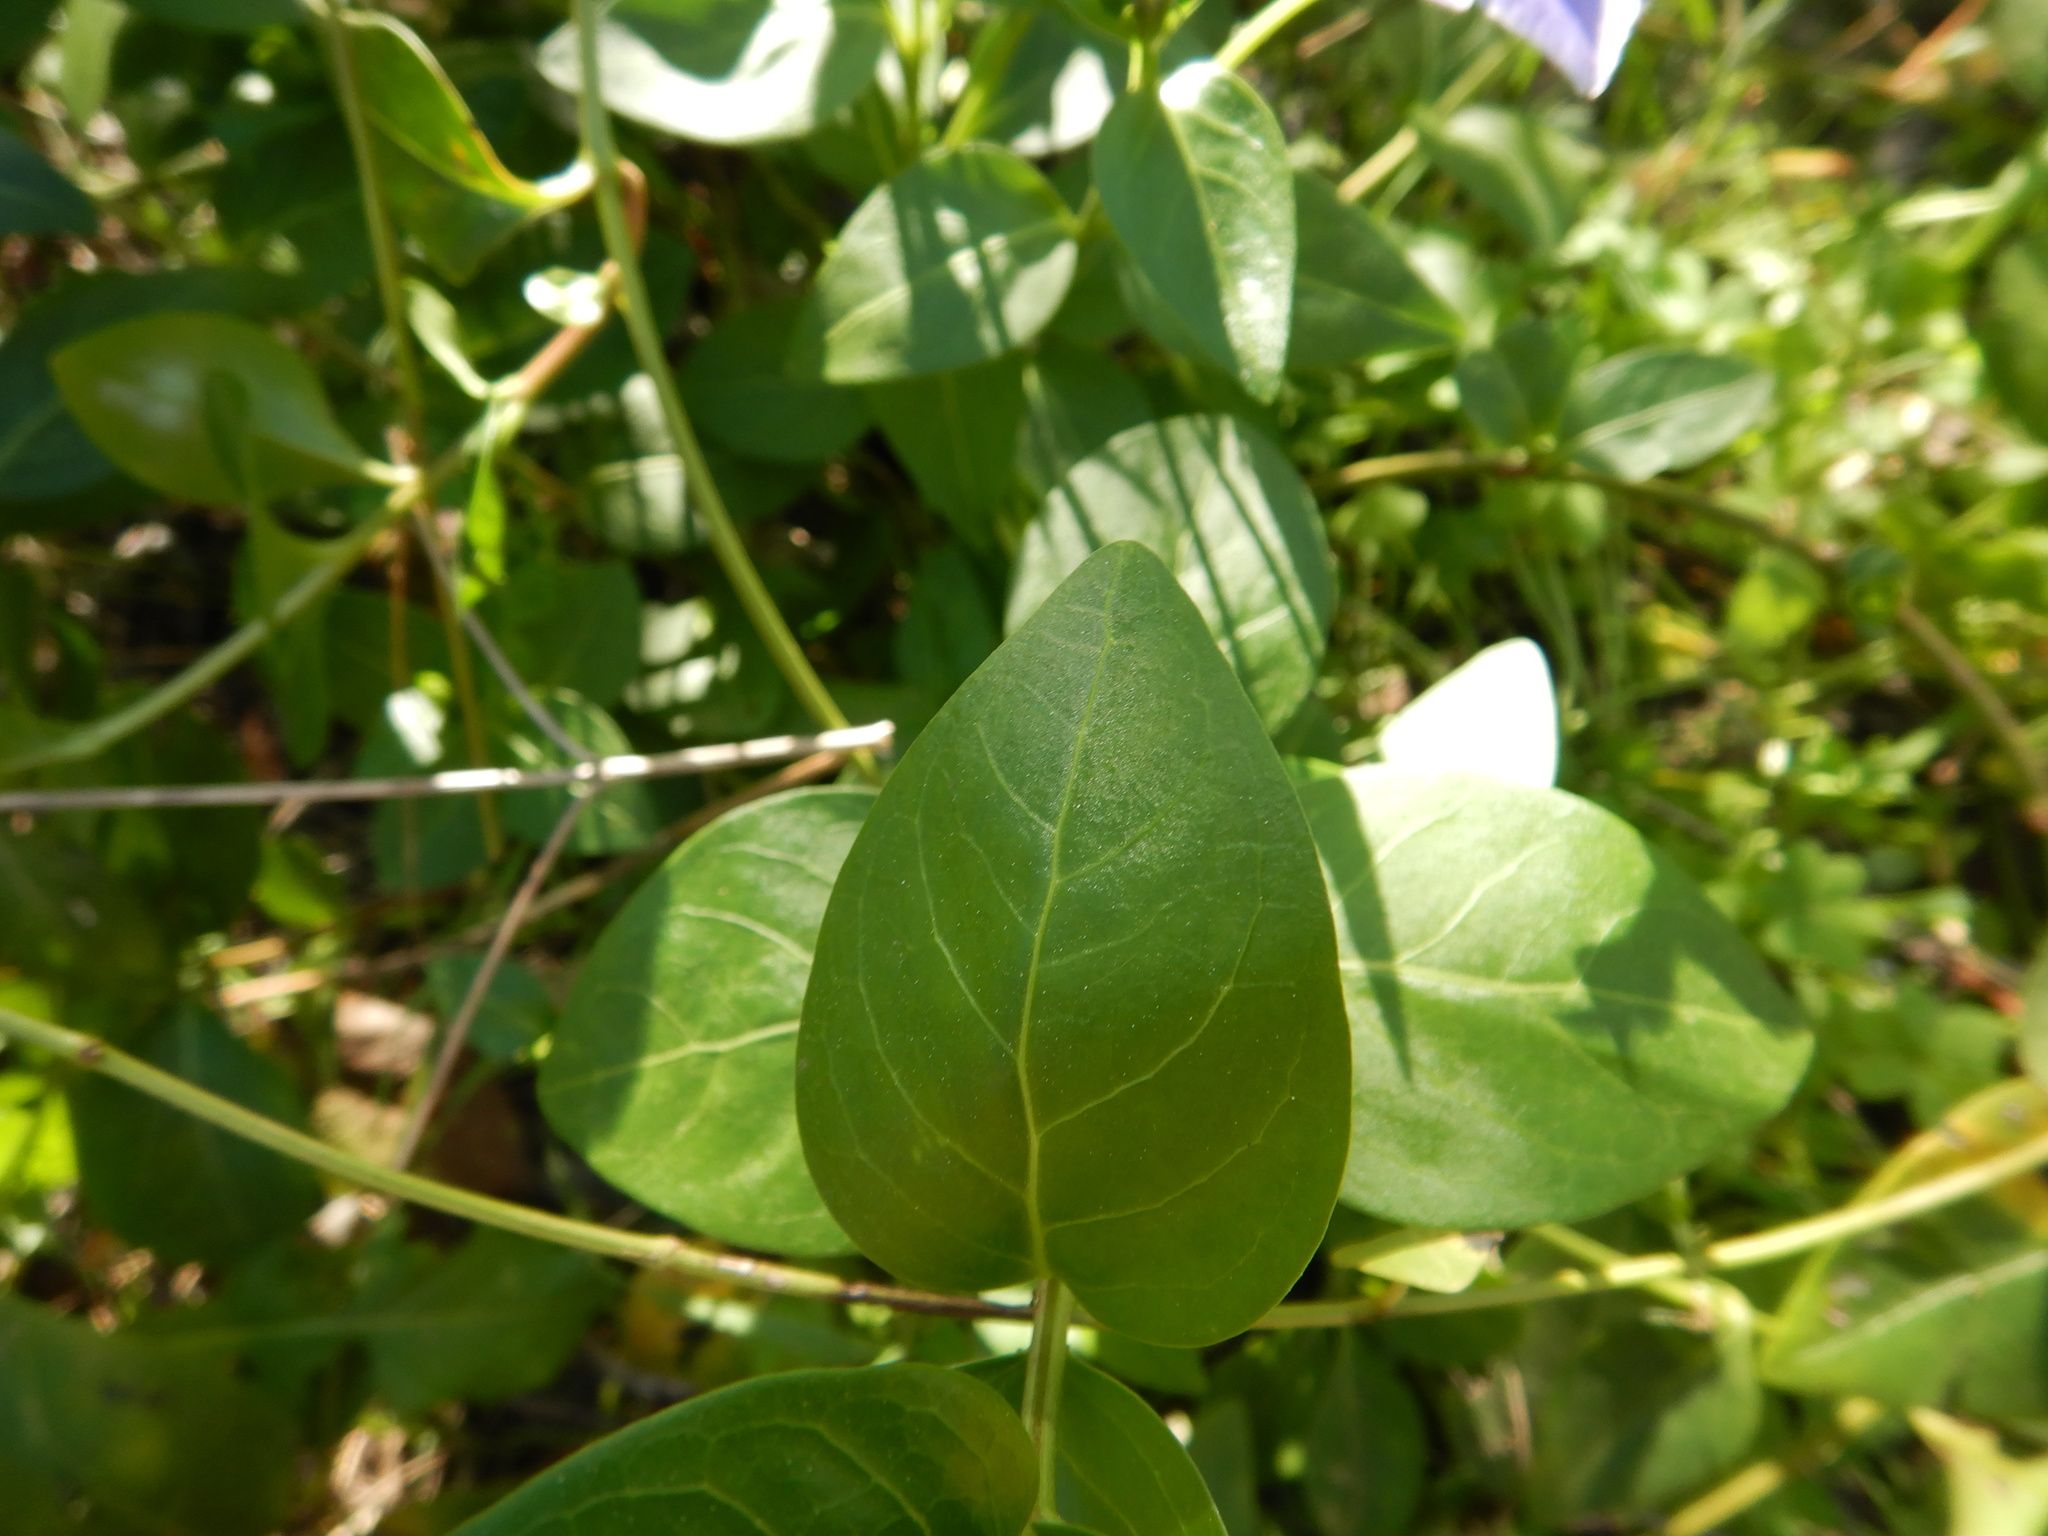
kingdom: Plantae
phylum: Tracheophyta
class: Magnoliopsida
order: Gentianales
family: Apocynaceae
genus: Vinca
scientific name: Vinca difformis
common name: Intermediate periwinkle
